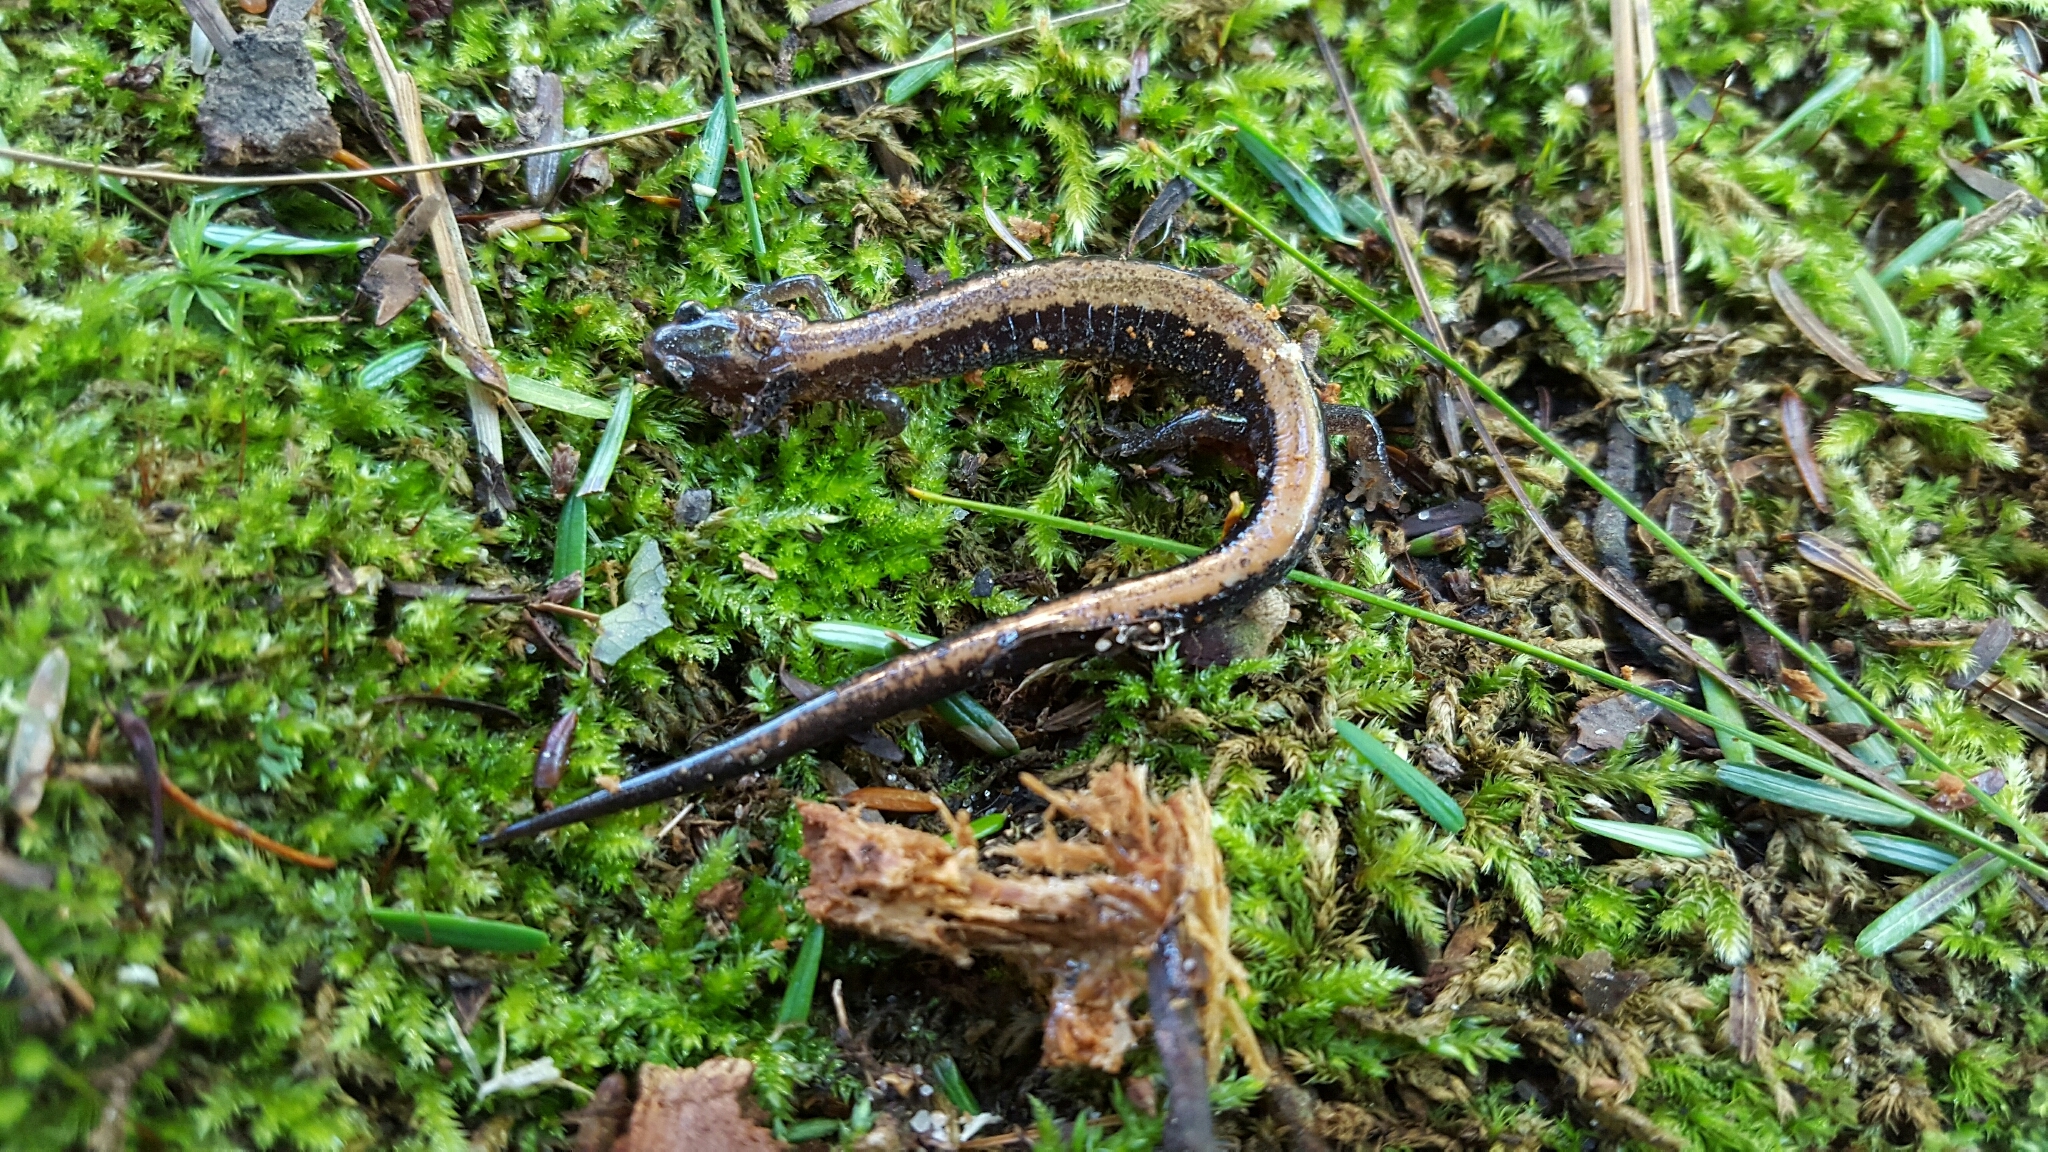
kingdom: Animalia
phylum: Chordata
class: Amphibia
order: Caudata
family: Plethodontidae
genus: Plethodon
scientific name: Plethodon cinereus
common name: Redback salamander
